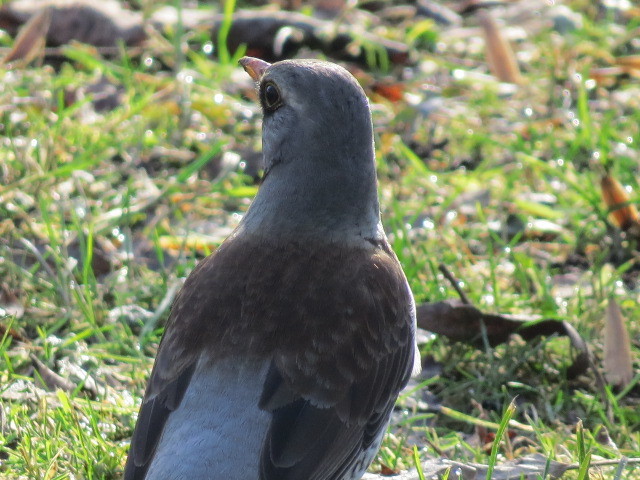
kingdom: Animalia
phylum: Chordata
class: Aves
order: Passeriformes
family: Turdidae
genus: Turdus
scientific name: Turdus pilaris
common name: Fieldfare
